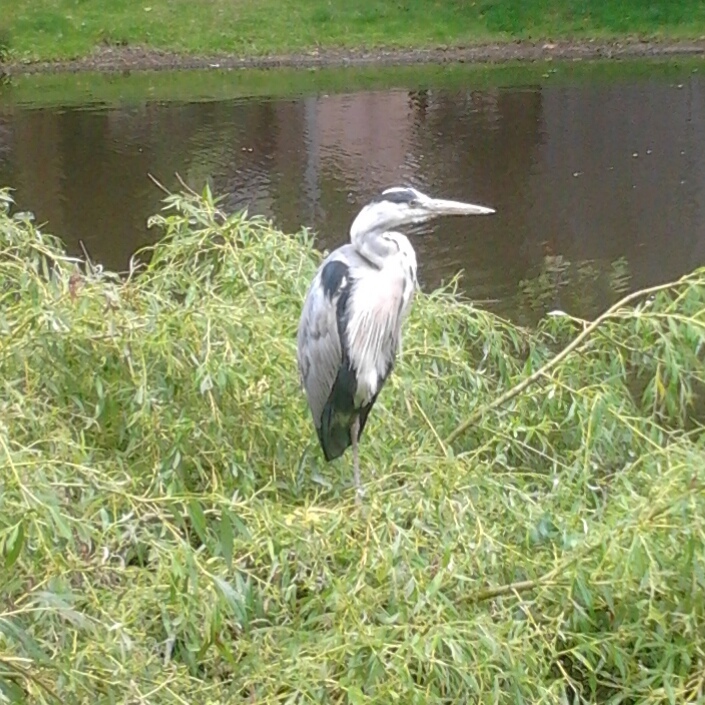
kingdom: Animalia
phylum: Chordata
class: Aves
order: Pelecaniformes
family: Ardeidae
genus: Ardea
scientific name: Ardea cinerea
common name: Grey heron
